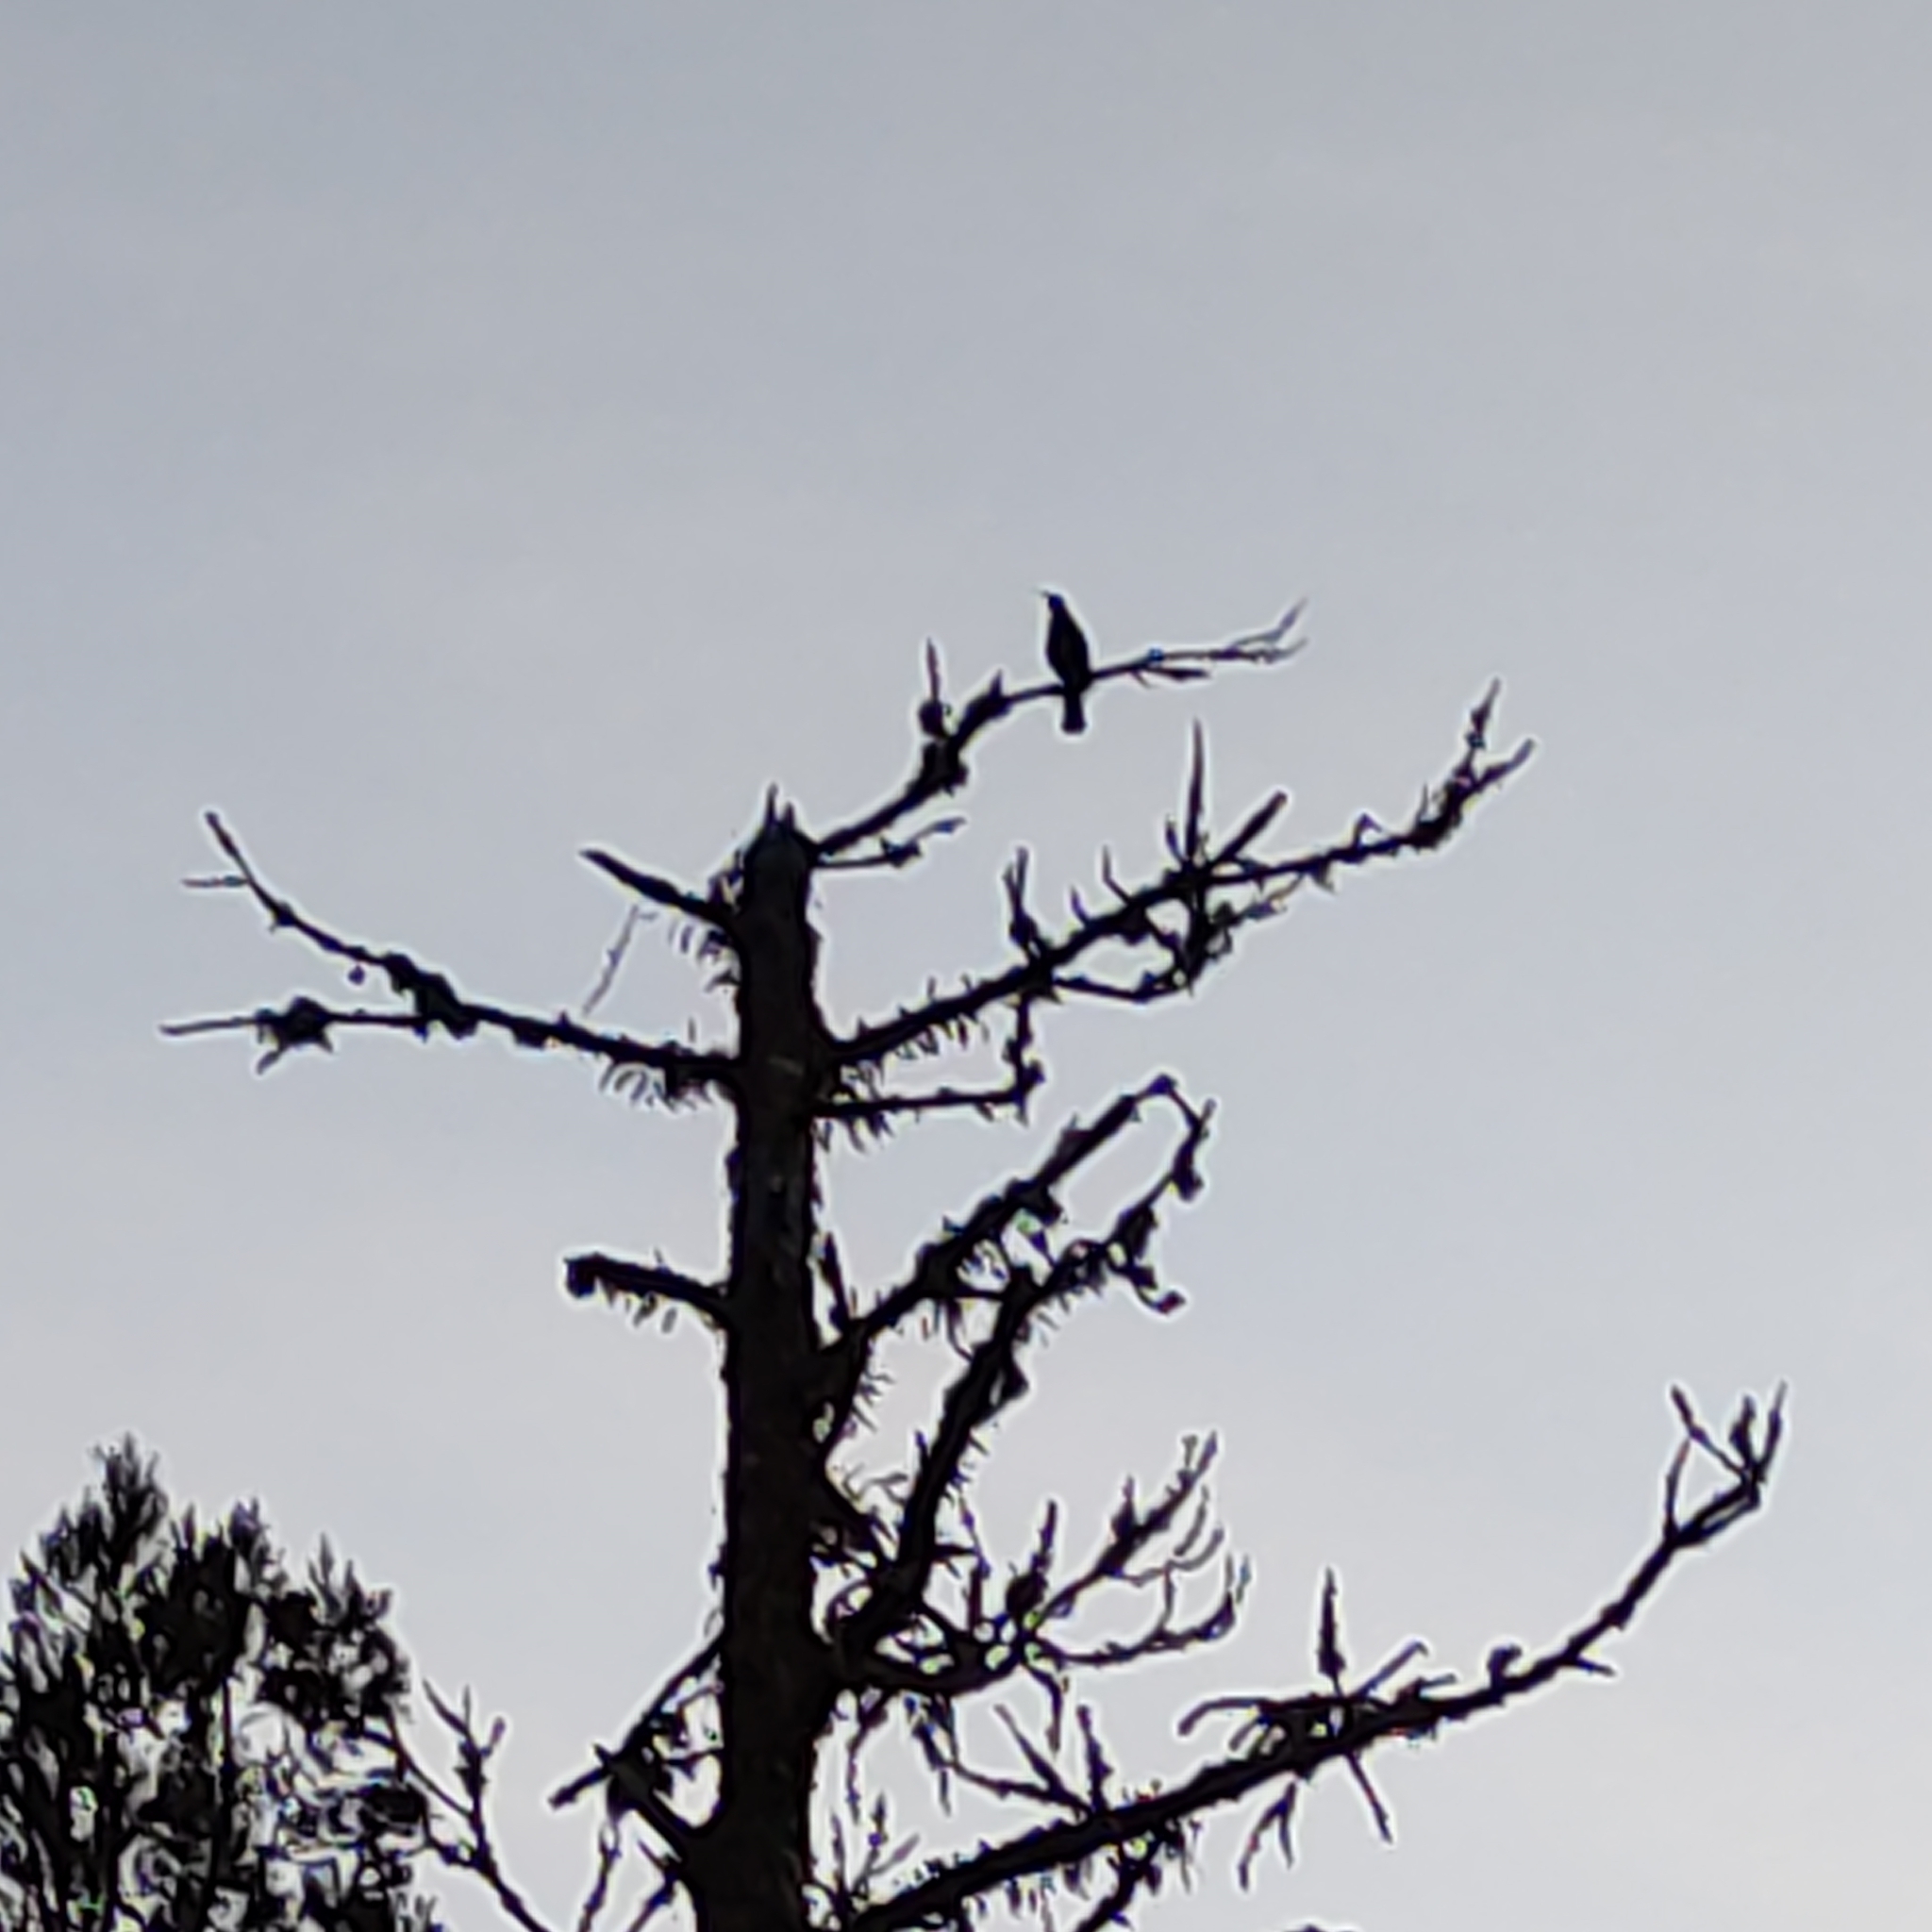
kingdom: Animalia
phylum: Chordata
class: Aves
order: Passeriformes
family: Meliphagidae
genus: Prosthemadera
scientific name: Prosthemadera novaeseelandiae
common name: Tui
